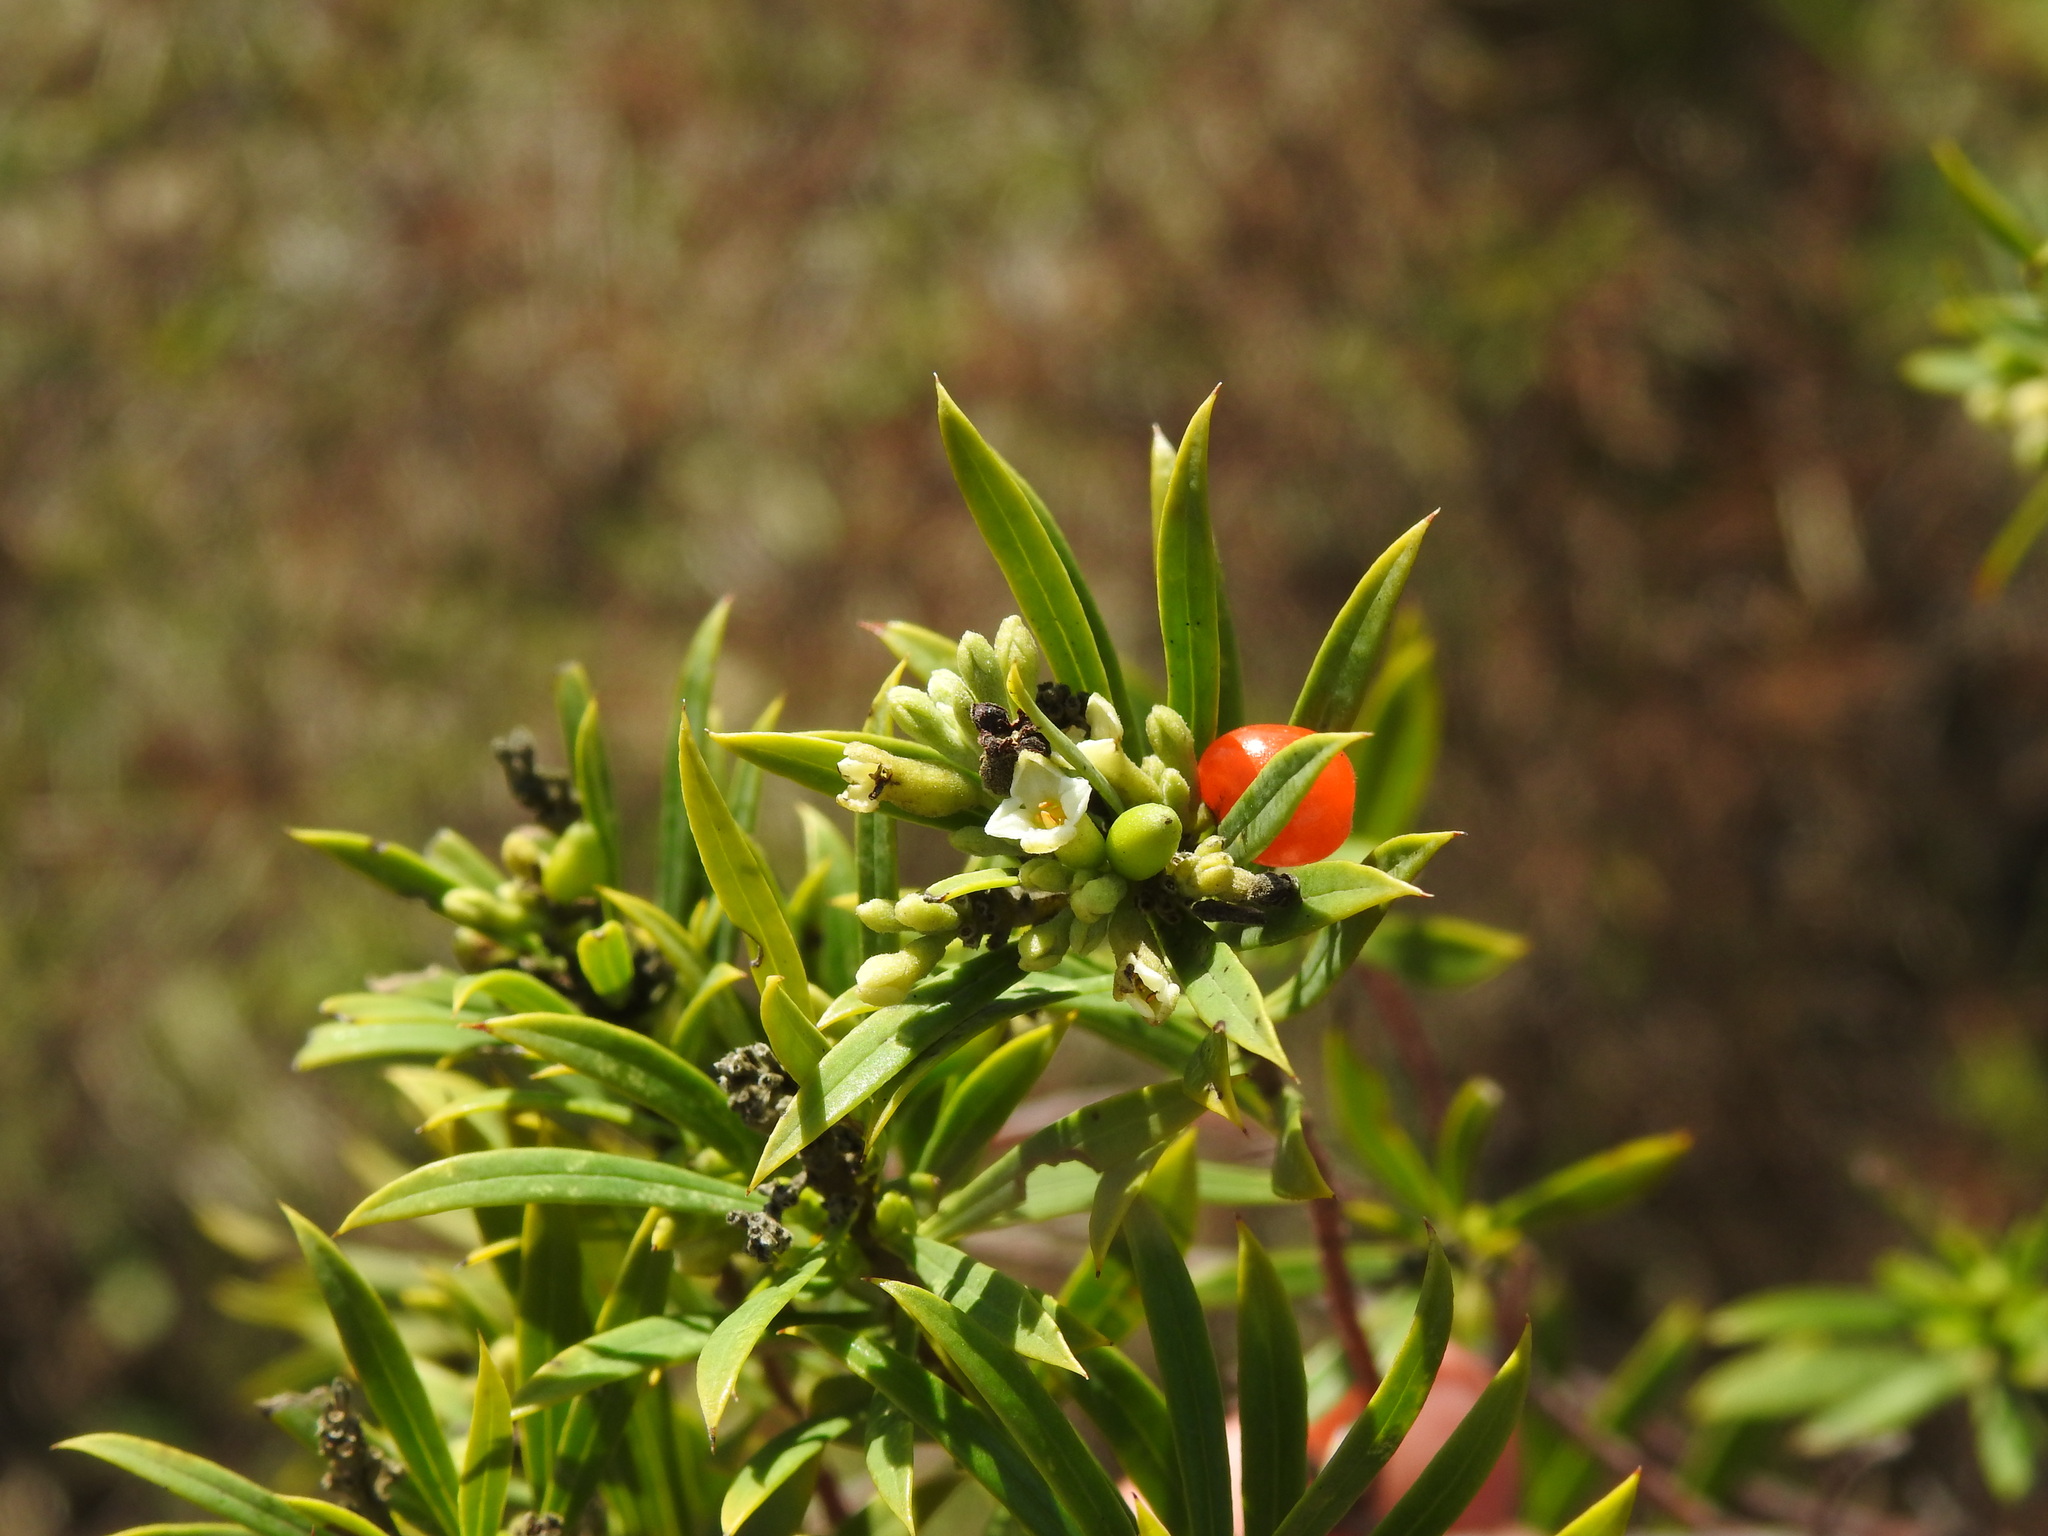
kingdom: Plantae
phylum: Tracheophyta
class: Magnoliopsida
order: Malvales
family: Thymelaeaceae
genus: Daphne
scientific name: Daphne gnidium
